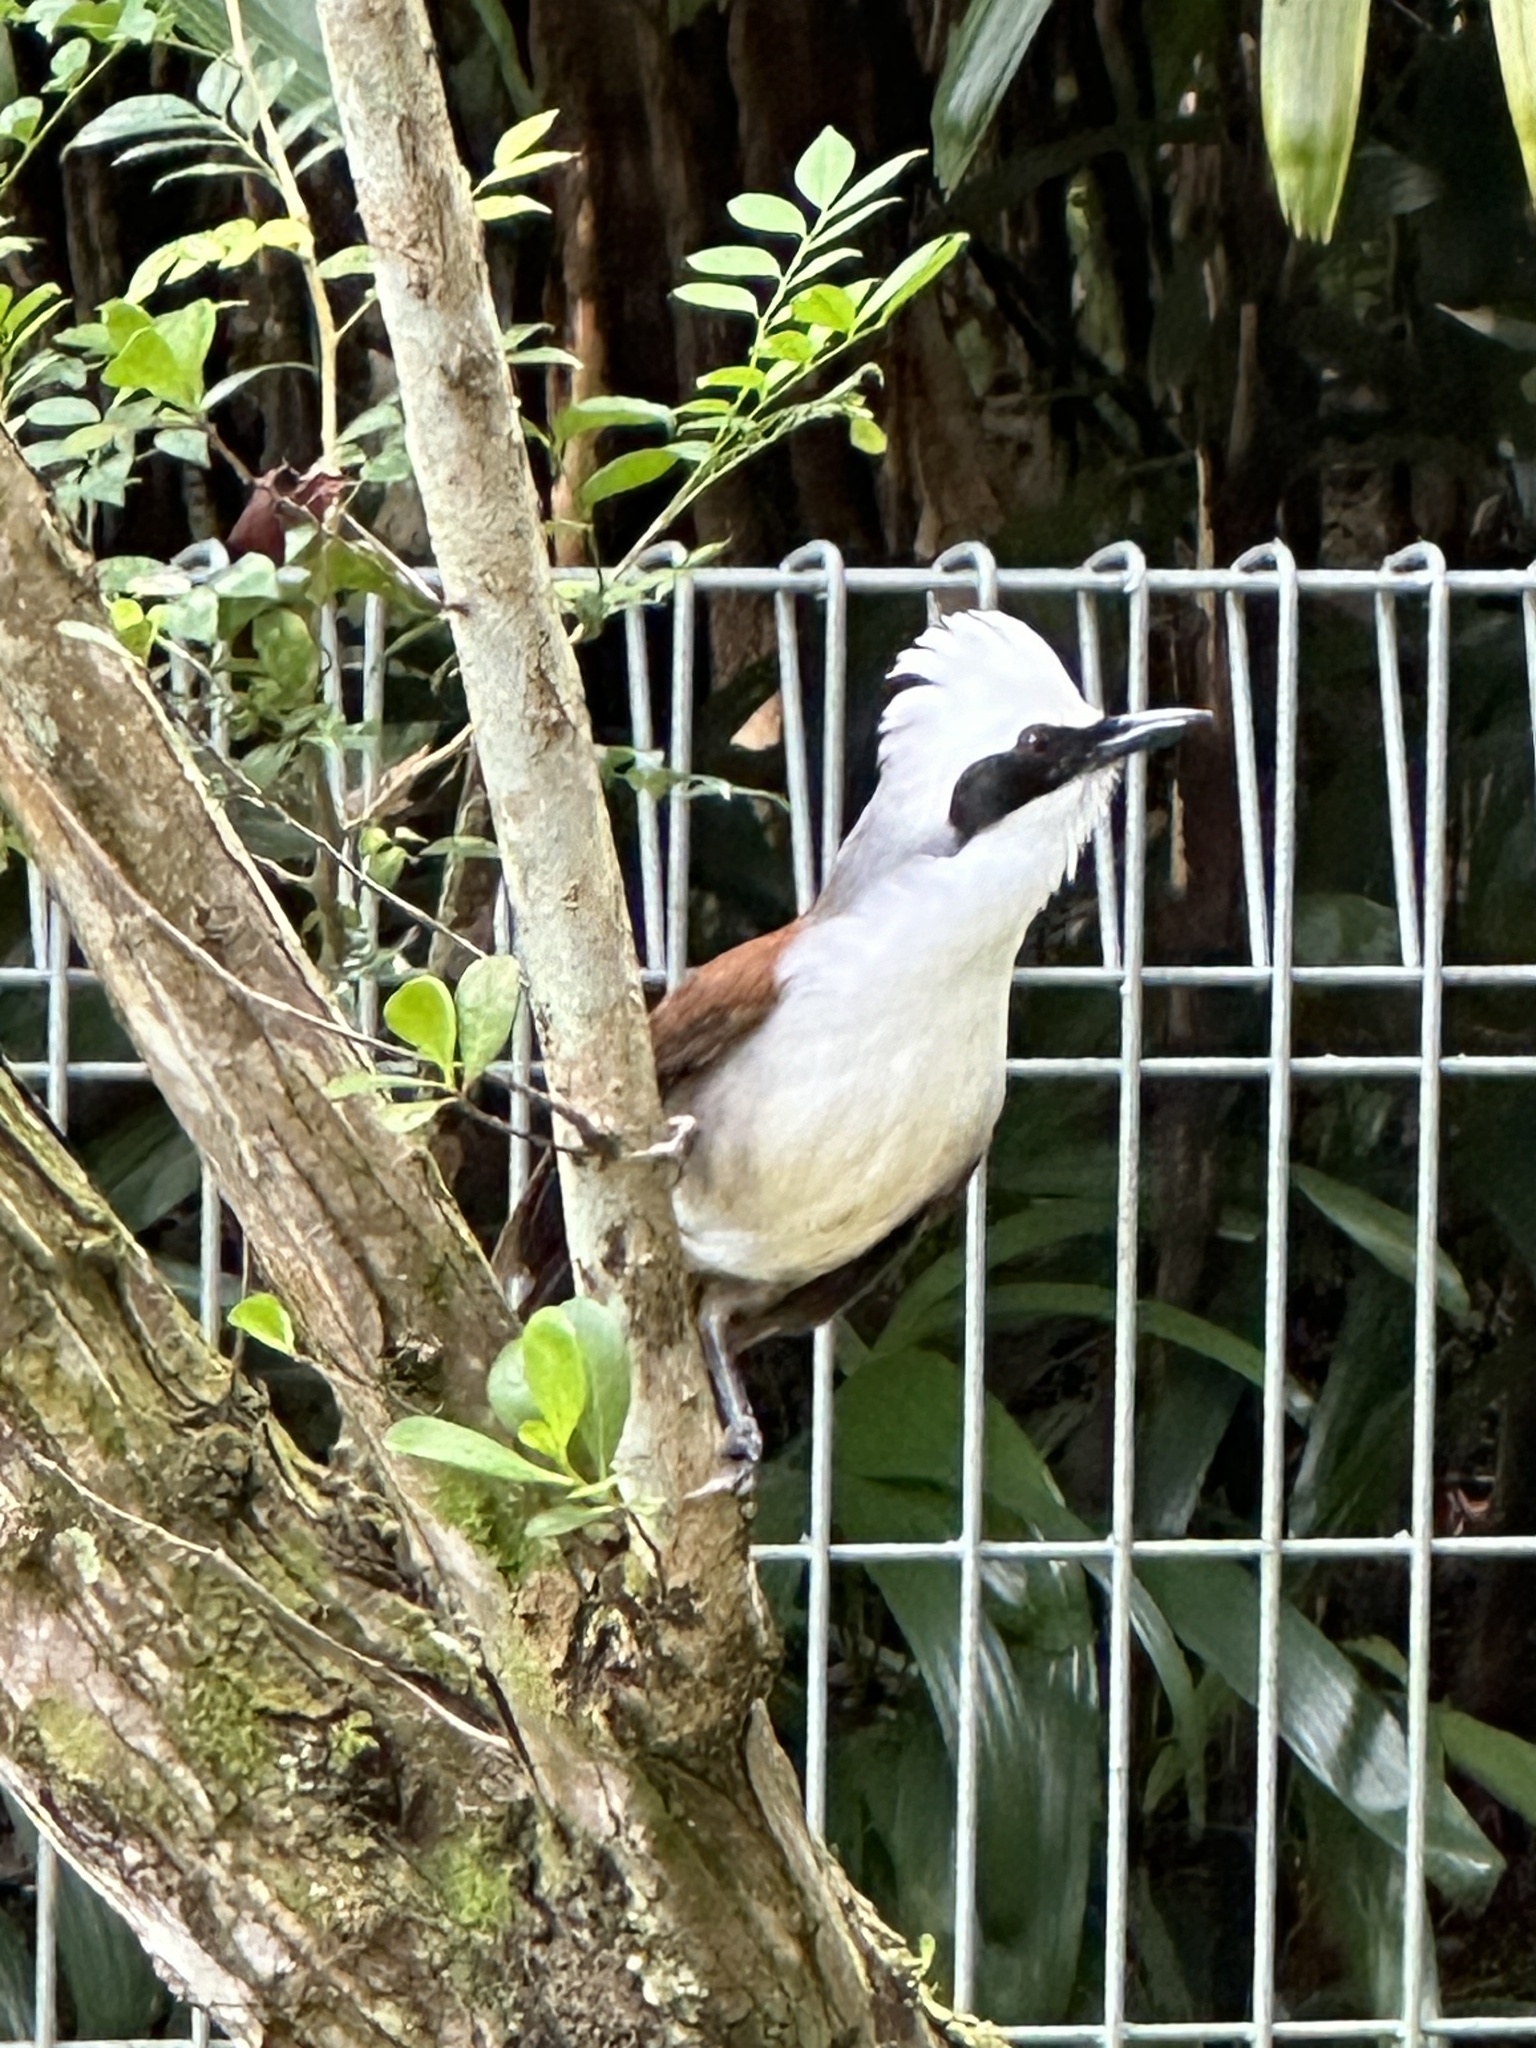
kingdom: Animalia
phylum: Chordata
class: Aves
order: Passeriformes
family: Leiothrichidae
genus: Garrulax
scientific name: Garrulax leucolophus
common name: White-crested laughingthrush
